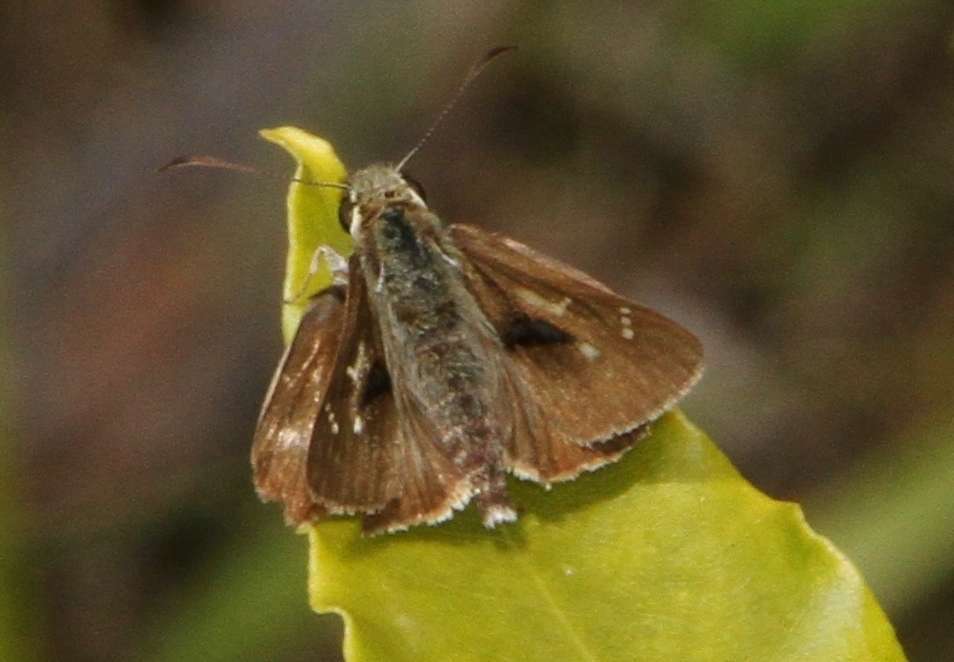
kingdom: Animalia
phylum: Arthropoda
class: Insecta
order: Lepidoptera
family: Hesperiidae
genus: Toxidia
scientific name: Toxidia
